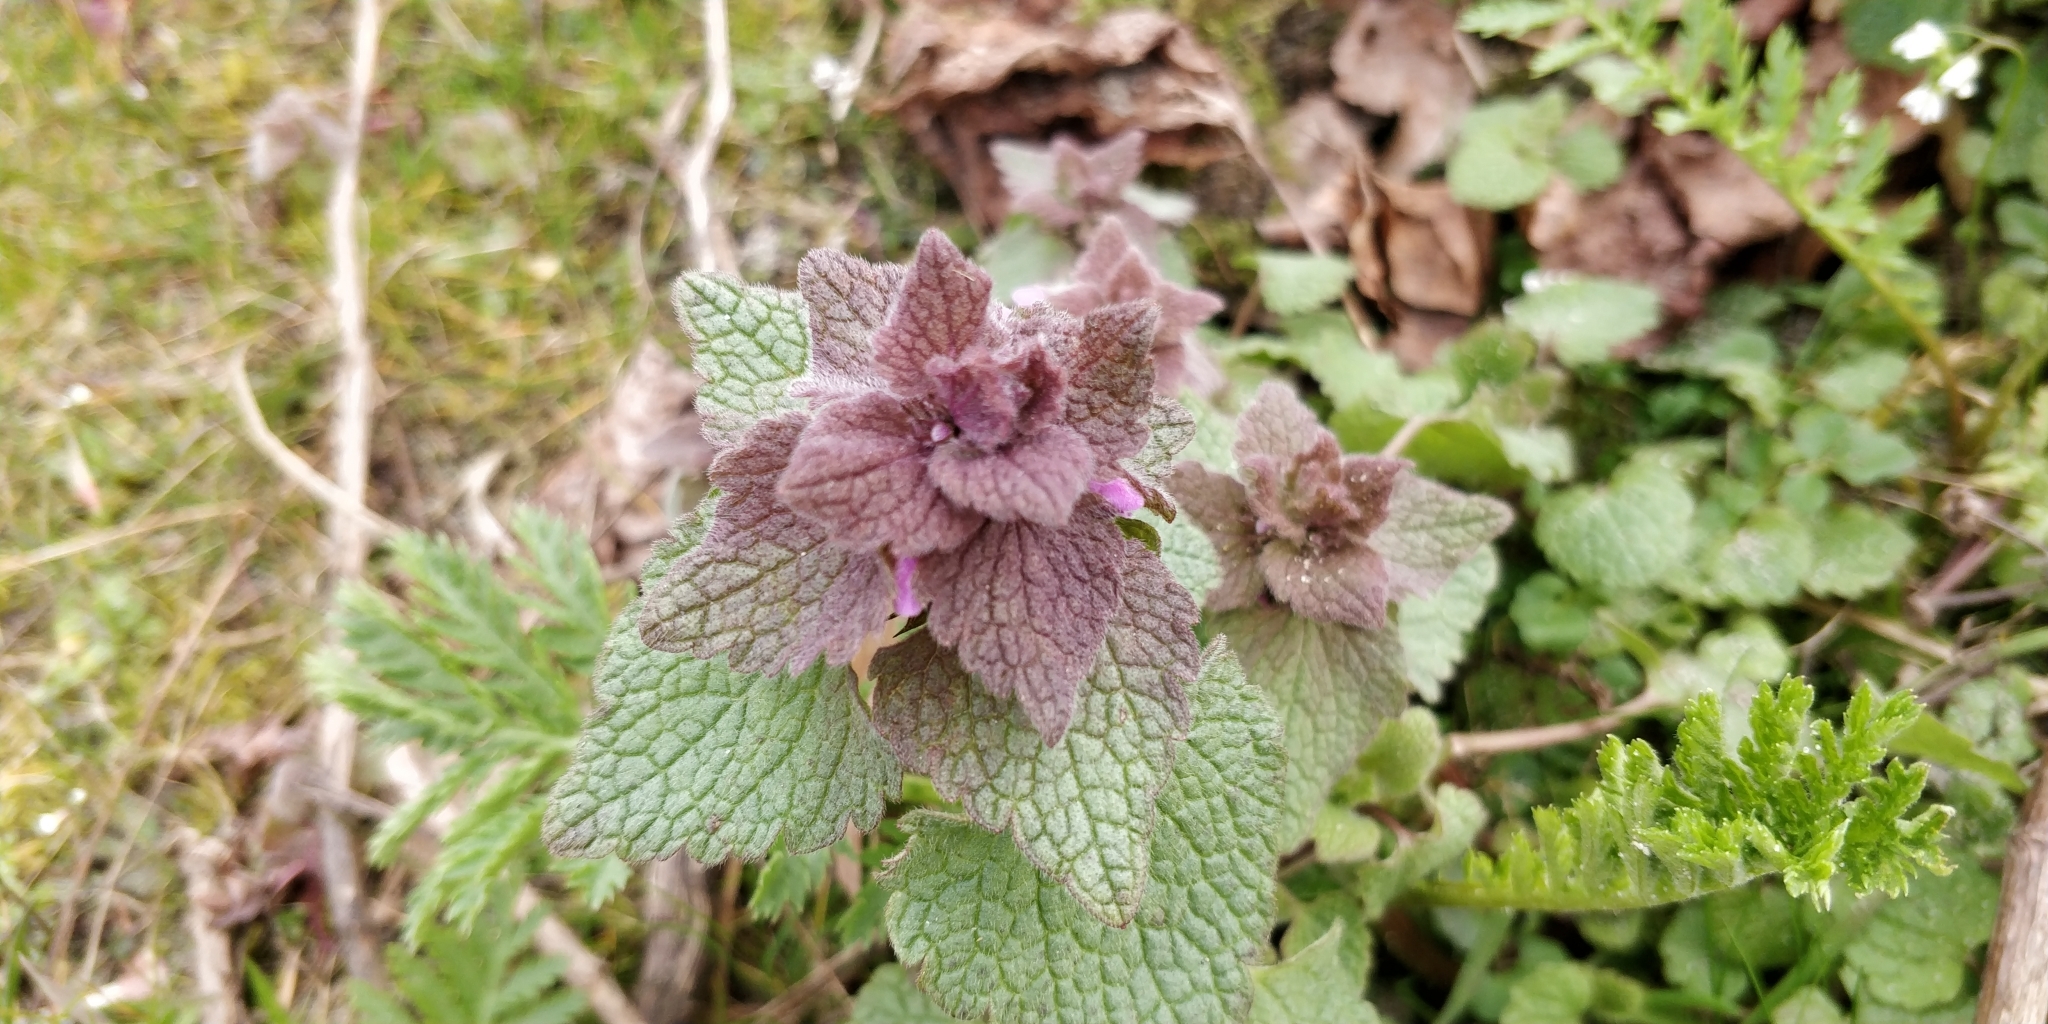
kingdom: Plantae
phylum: Tracheophyta
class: Magnoliopsida
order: Lamiales
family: Lamiaceae
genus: Lamium
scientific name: Lamium purpureum
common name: Red dead-nettle
